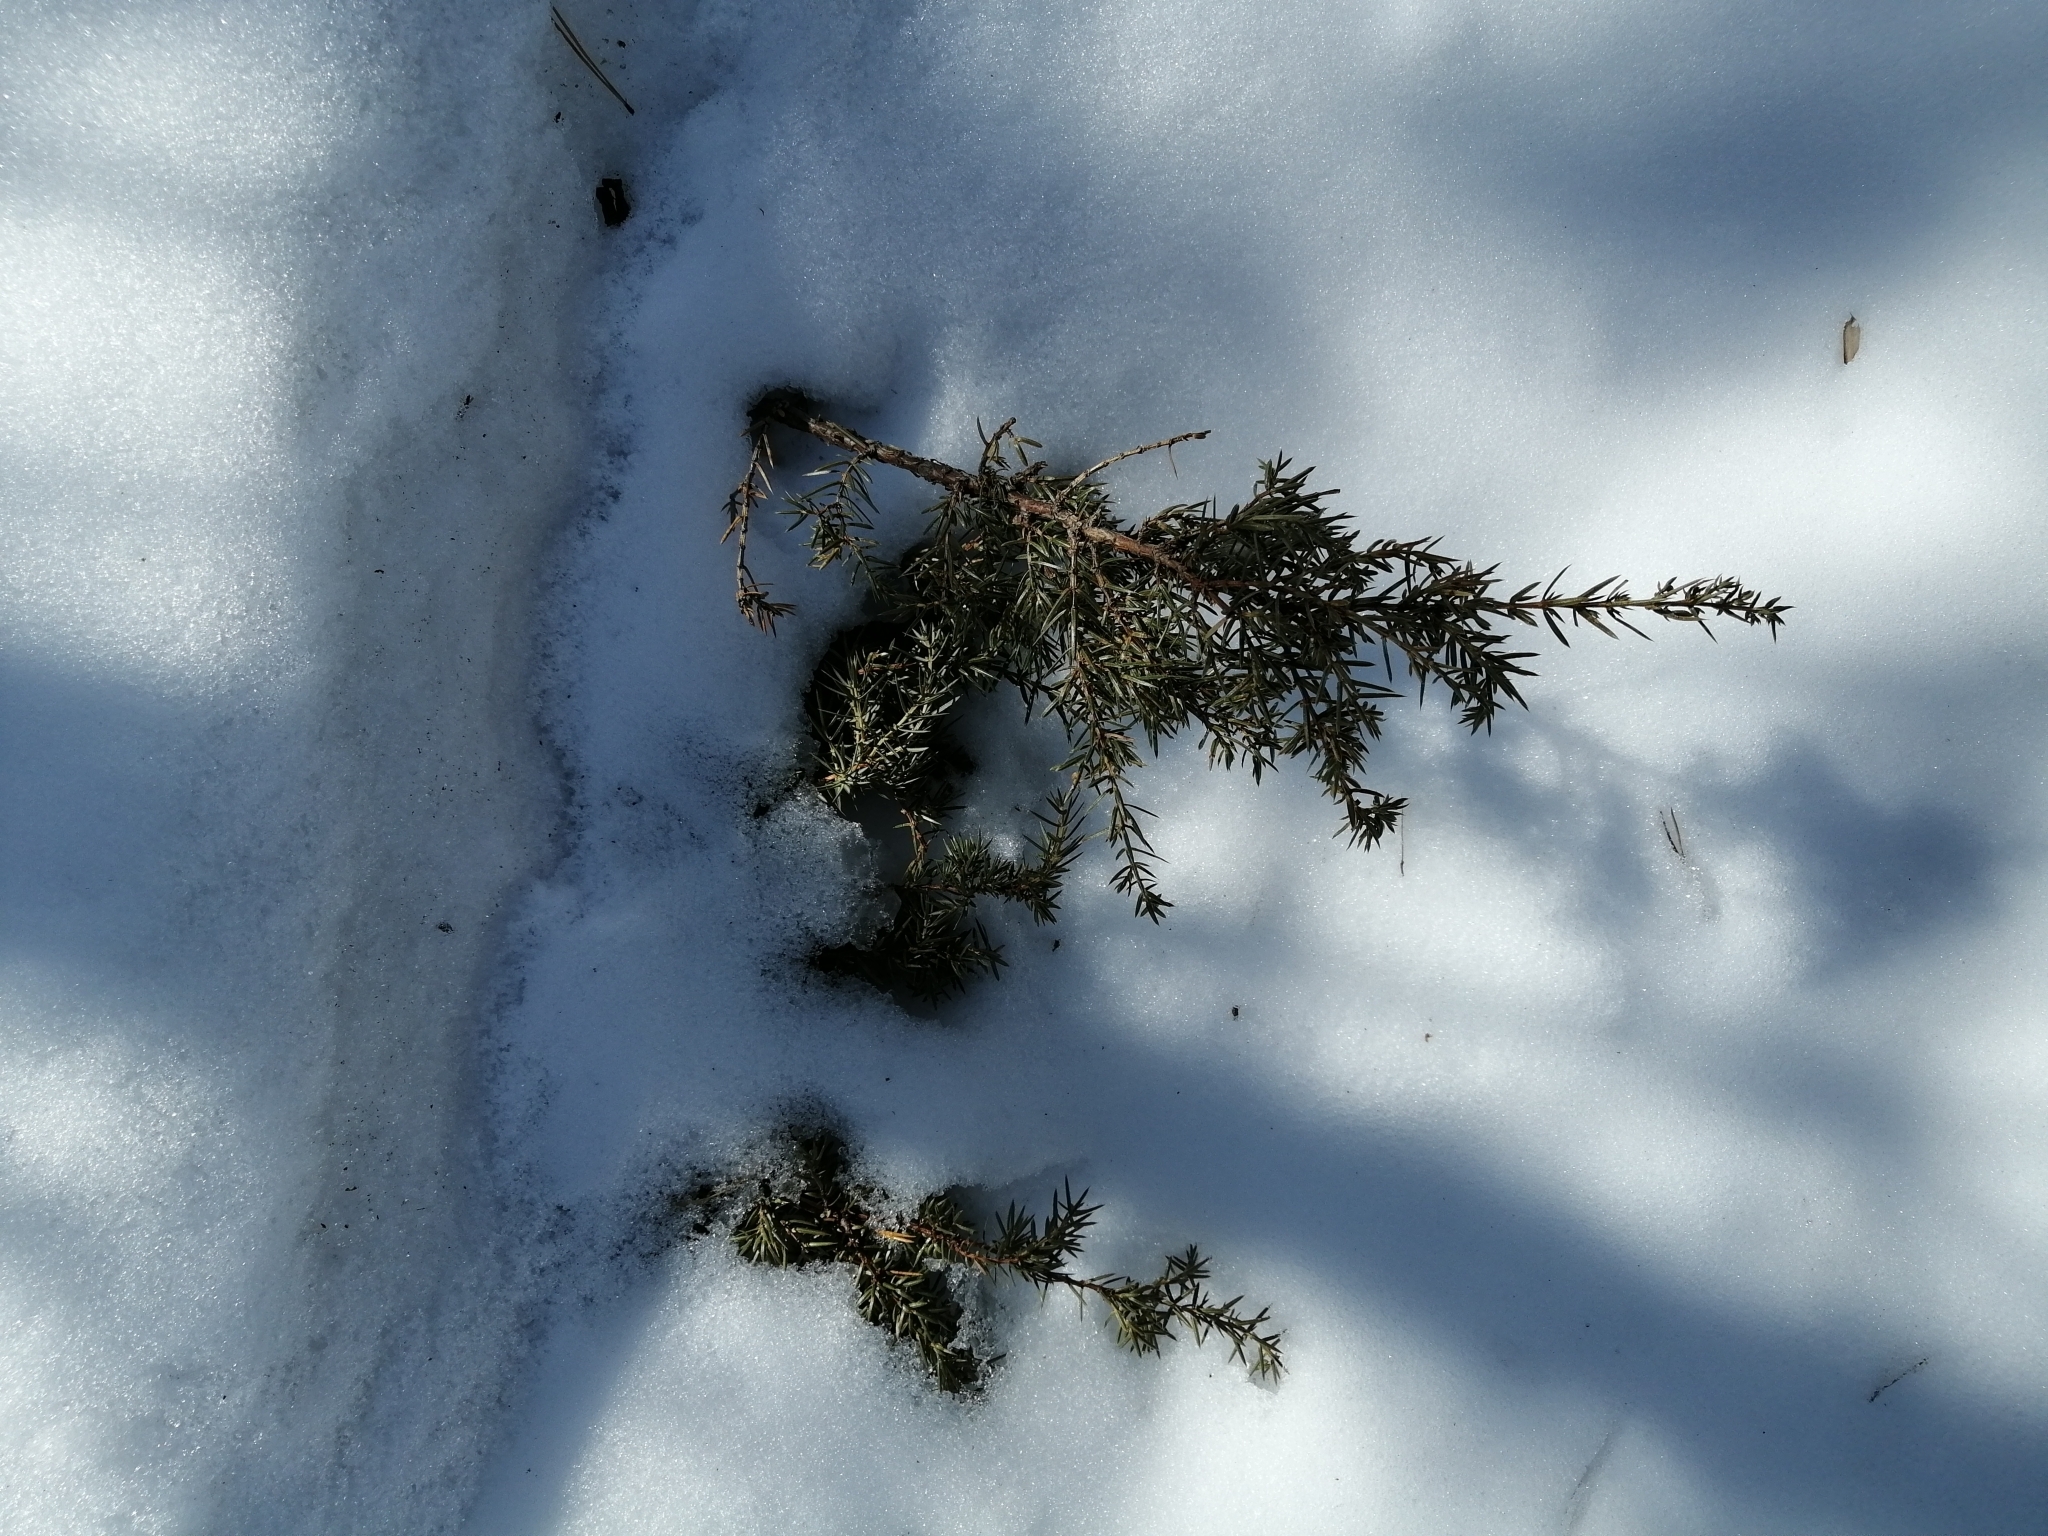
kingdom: Plantae
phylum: Tracheophyta
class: Pinopsida
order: Pinales
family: Cupressaceae
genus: Juniperus
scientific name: Juniperus communis
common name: Common juniper
